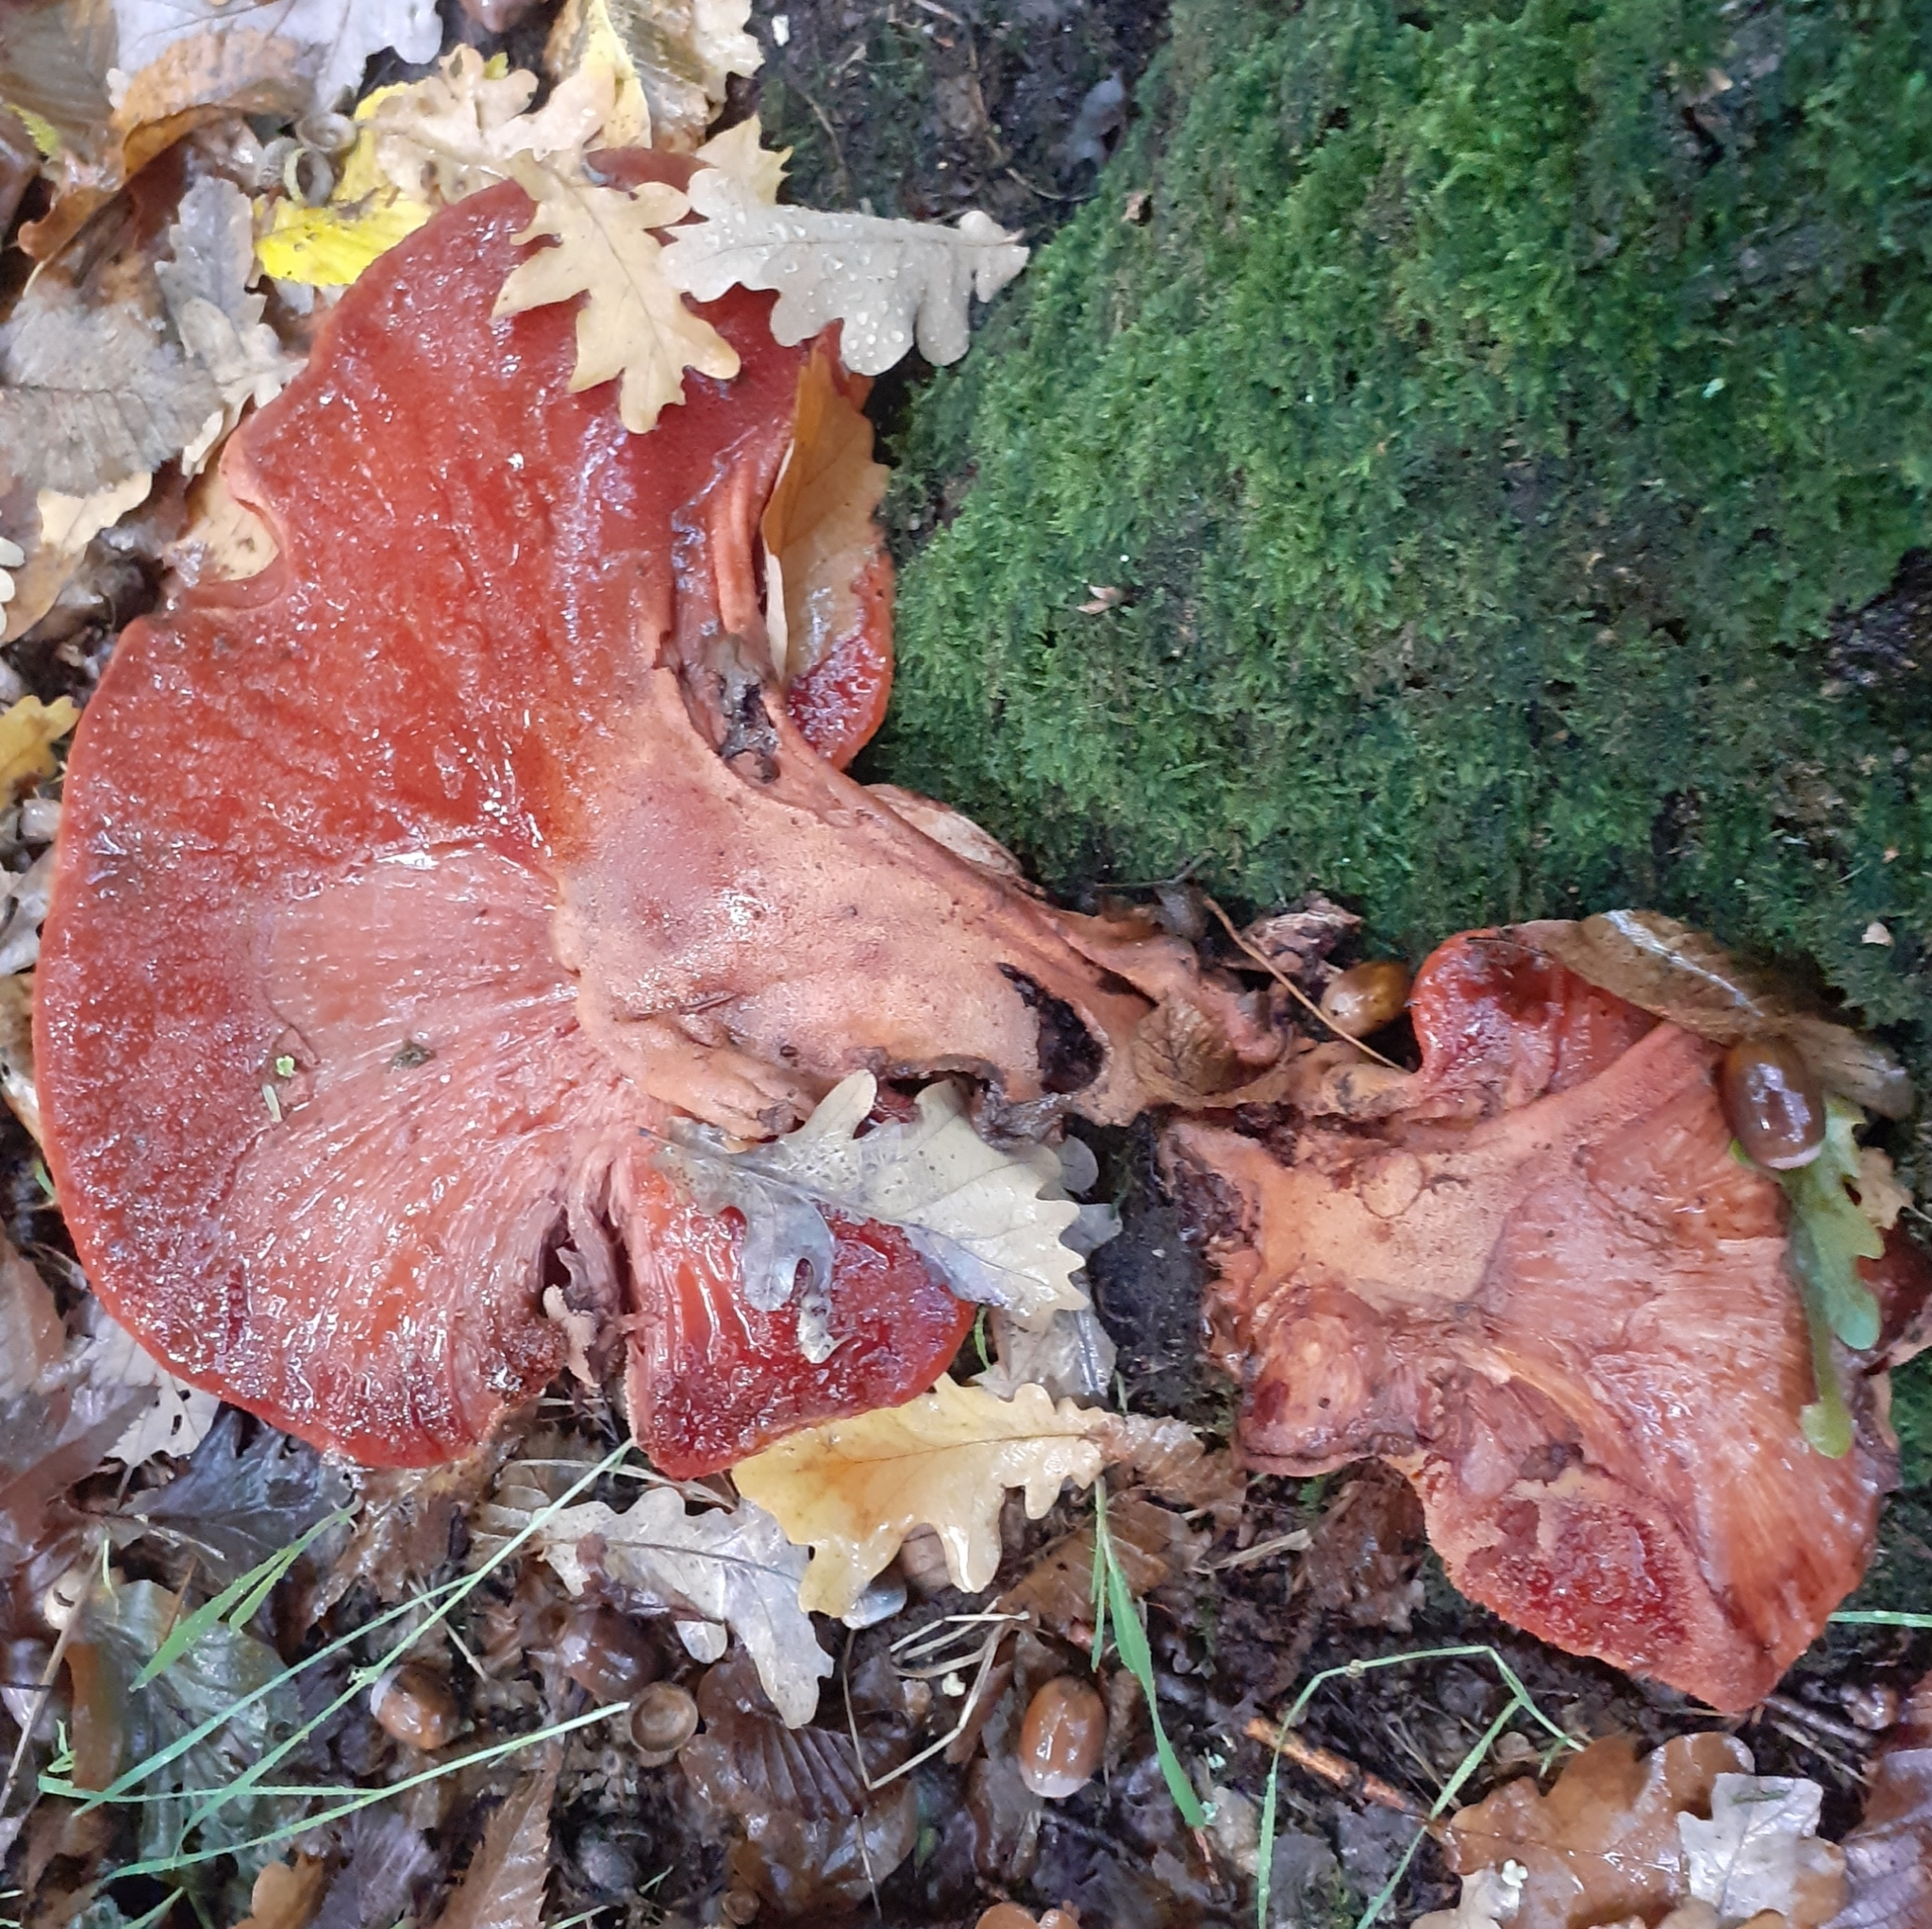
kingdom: Fungi
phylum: Basidiomycota
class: Agaricomycetes
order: Agaricales
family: Fistulinaceae
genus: Fistulina
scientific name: Fistulina hepatica
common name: Beef-steak fungus
